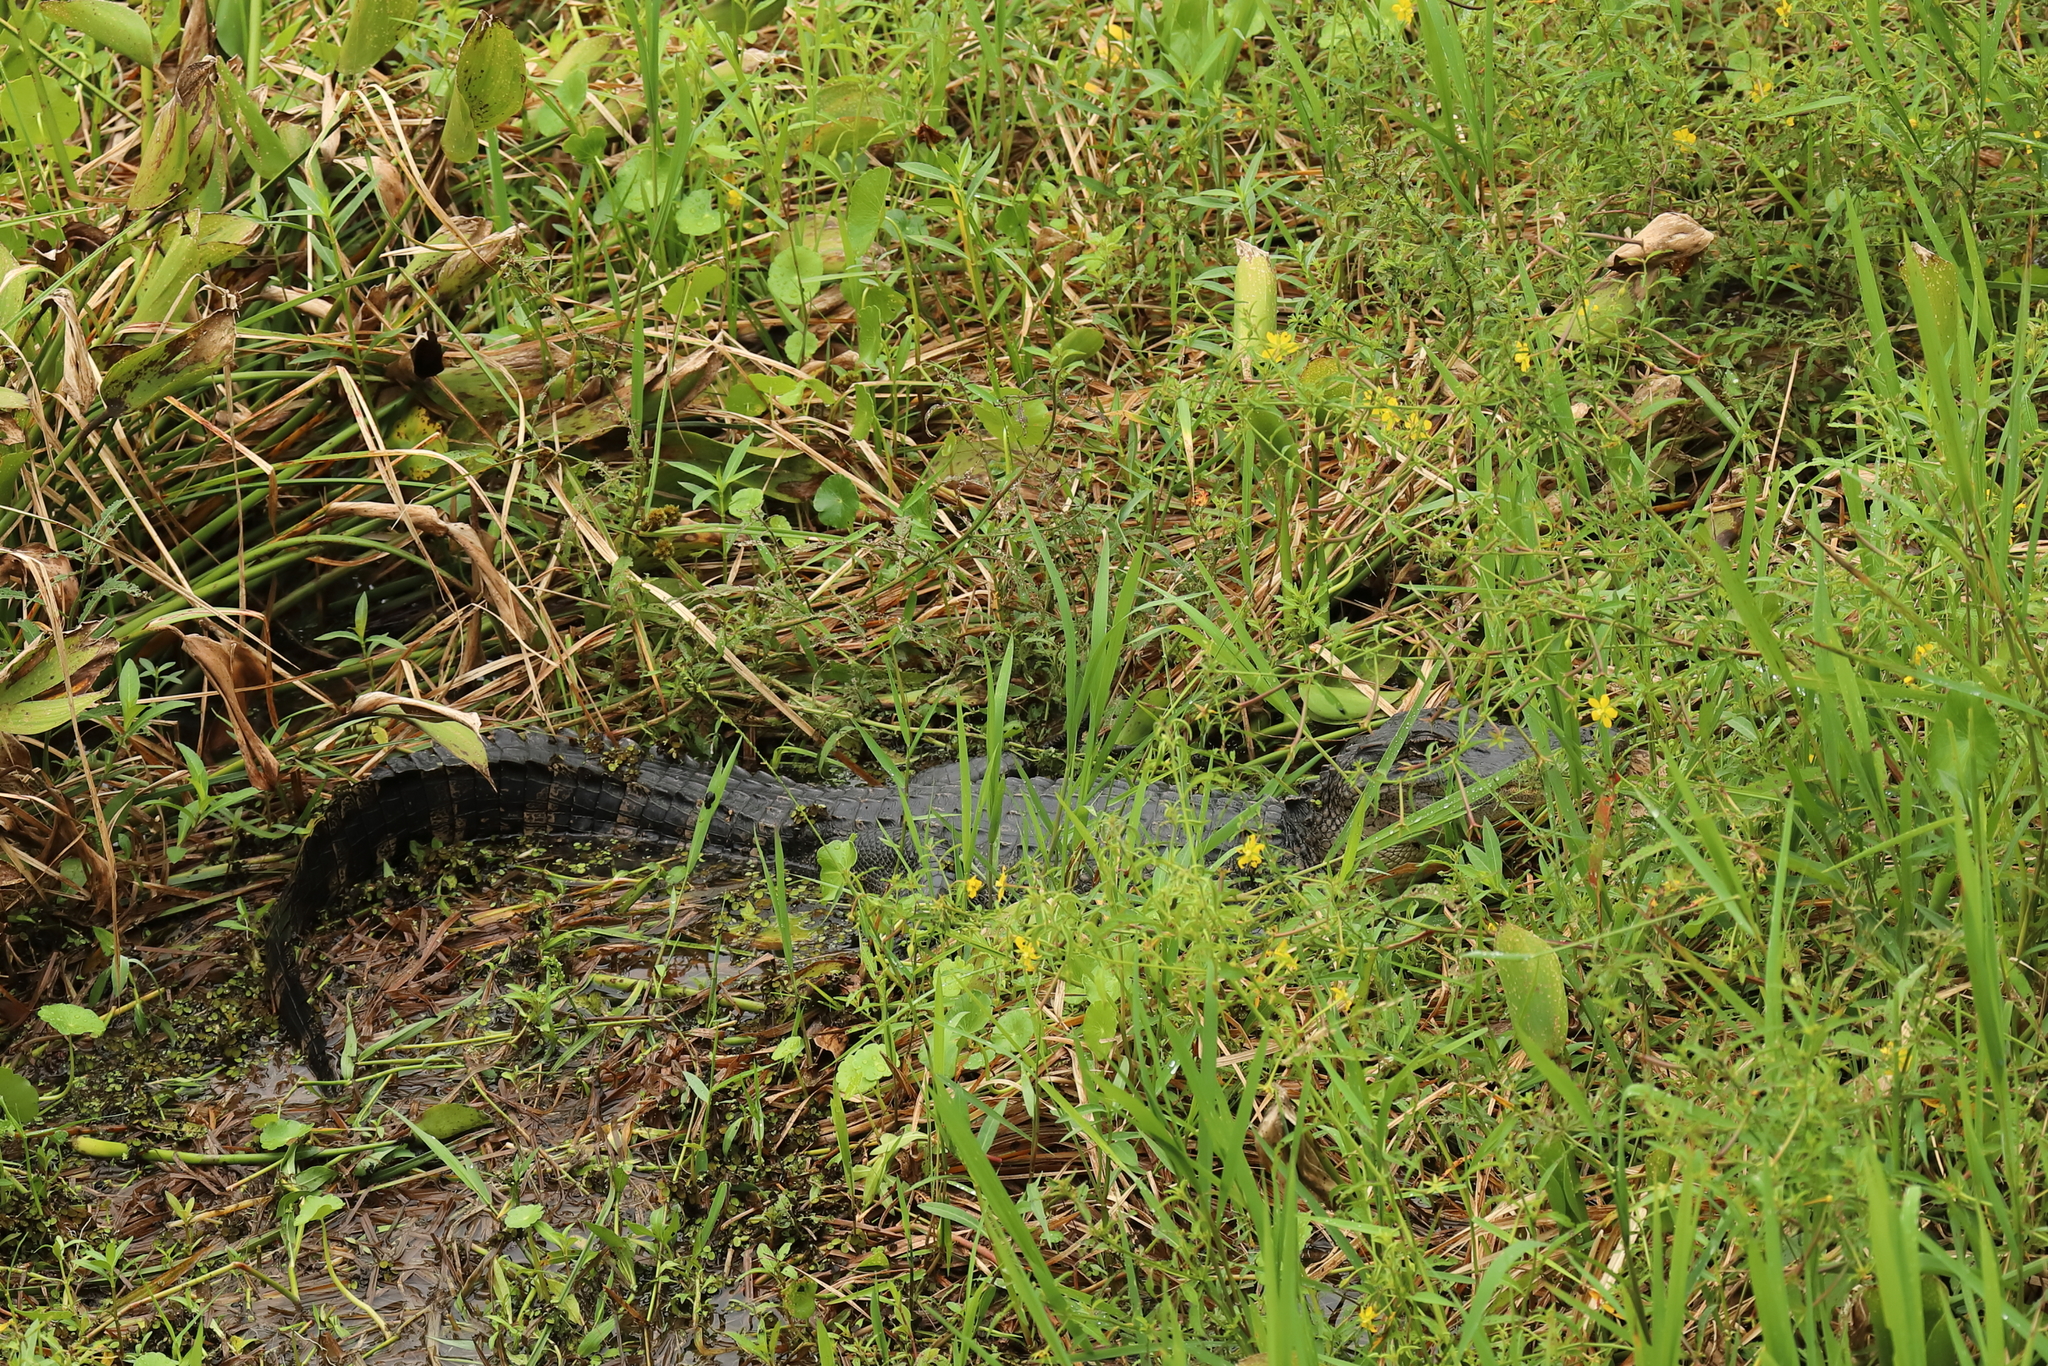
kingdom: Animalia
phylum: Chordata
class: Crocodylia
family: Alligatoridae
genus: Alligator
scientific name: Alligator mississippiensis
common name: American alligator
